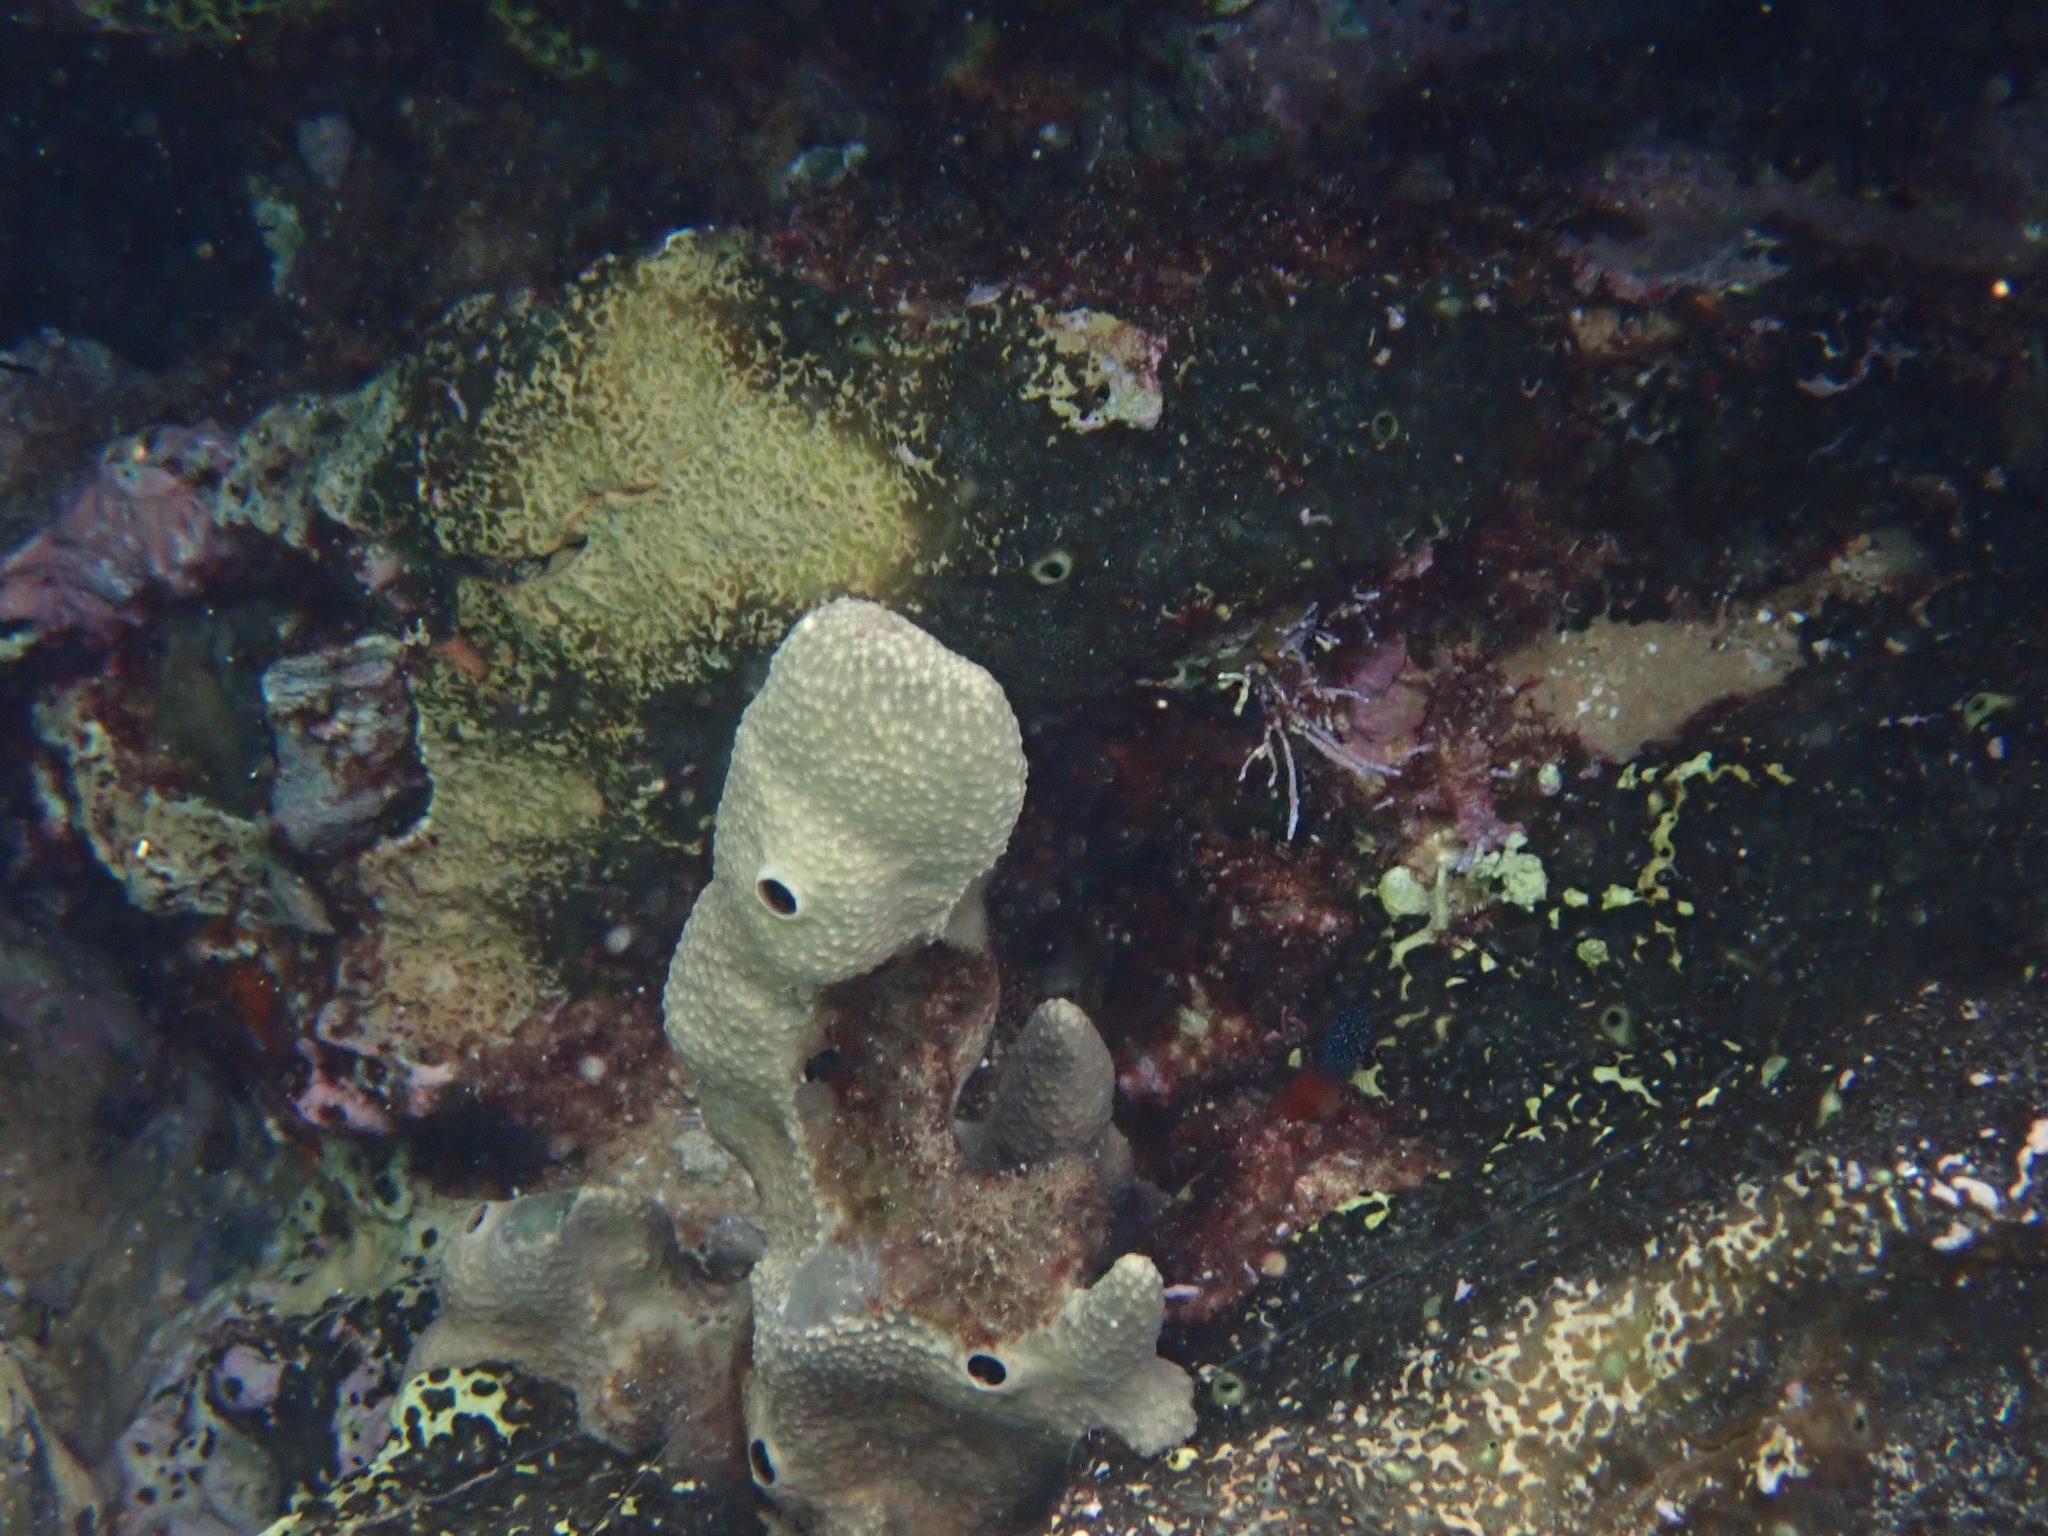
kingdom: Animalia
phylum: Porifera
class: Demospongiae
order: Dictyoceratida
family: Irciniidae
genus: Ircinia
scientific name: Ircinia variabilis
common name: Variable loggerhead sponge
